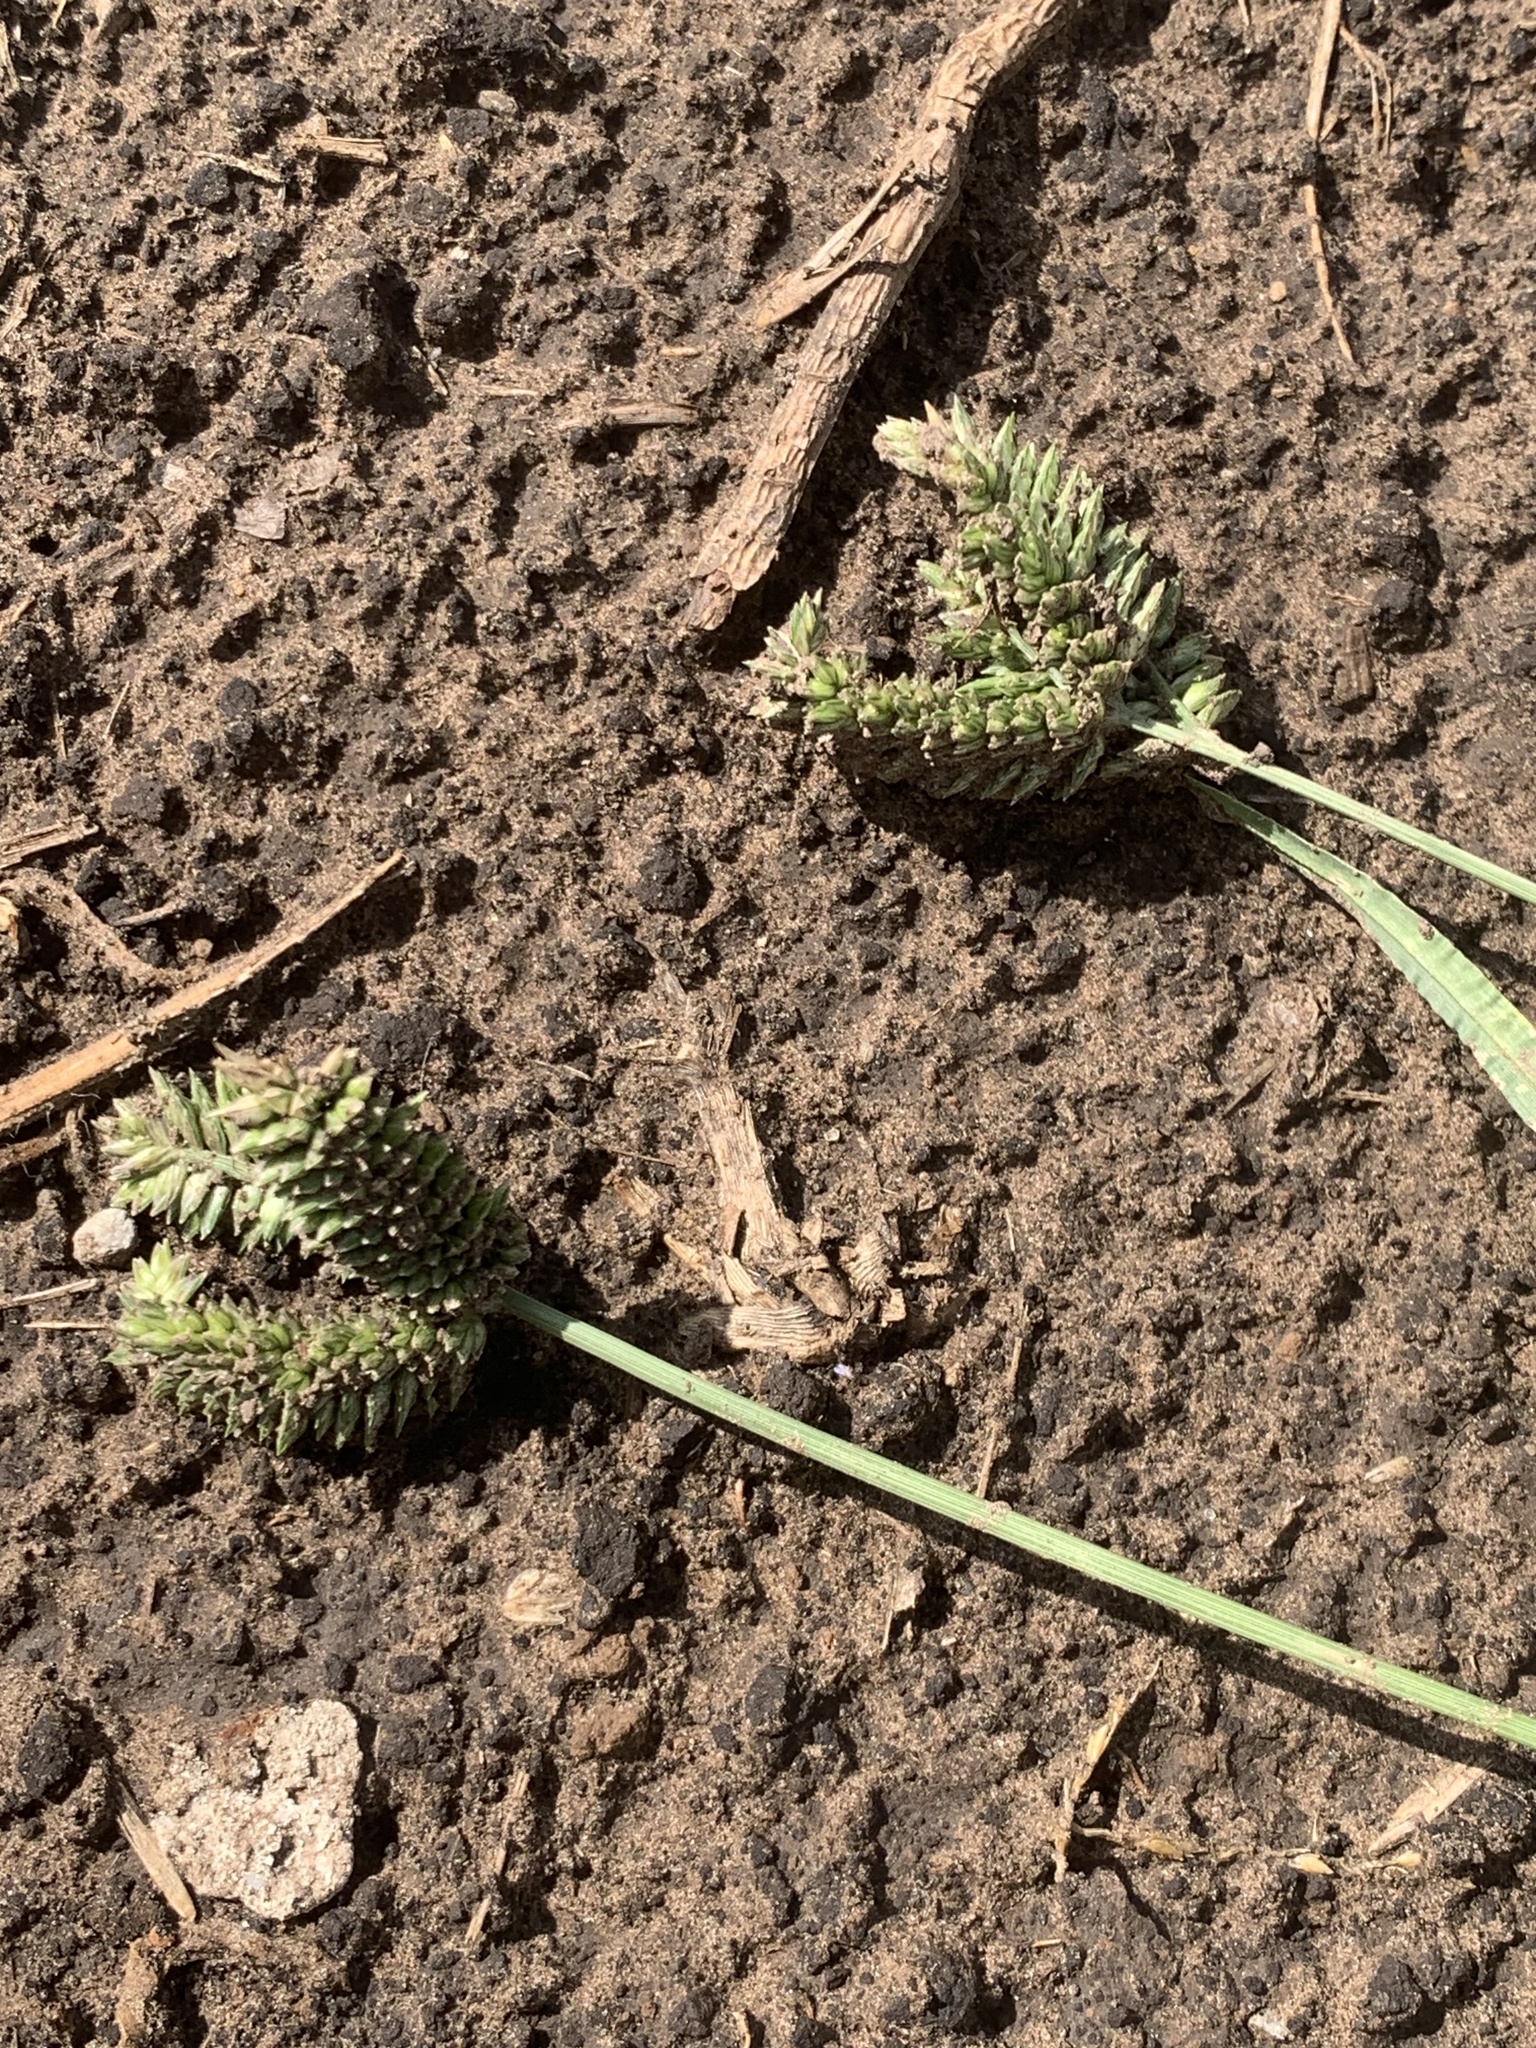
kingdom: Plantae
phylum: Tracheophyta
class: Liliopsida
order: Poales
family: Poaceae
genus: Eleusine
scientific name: Eleusine tristachya
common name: American yard-grass
